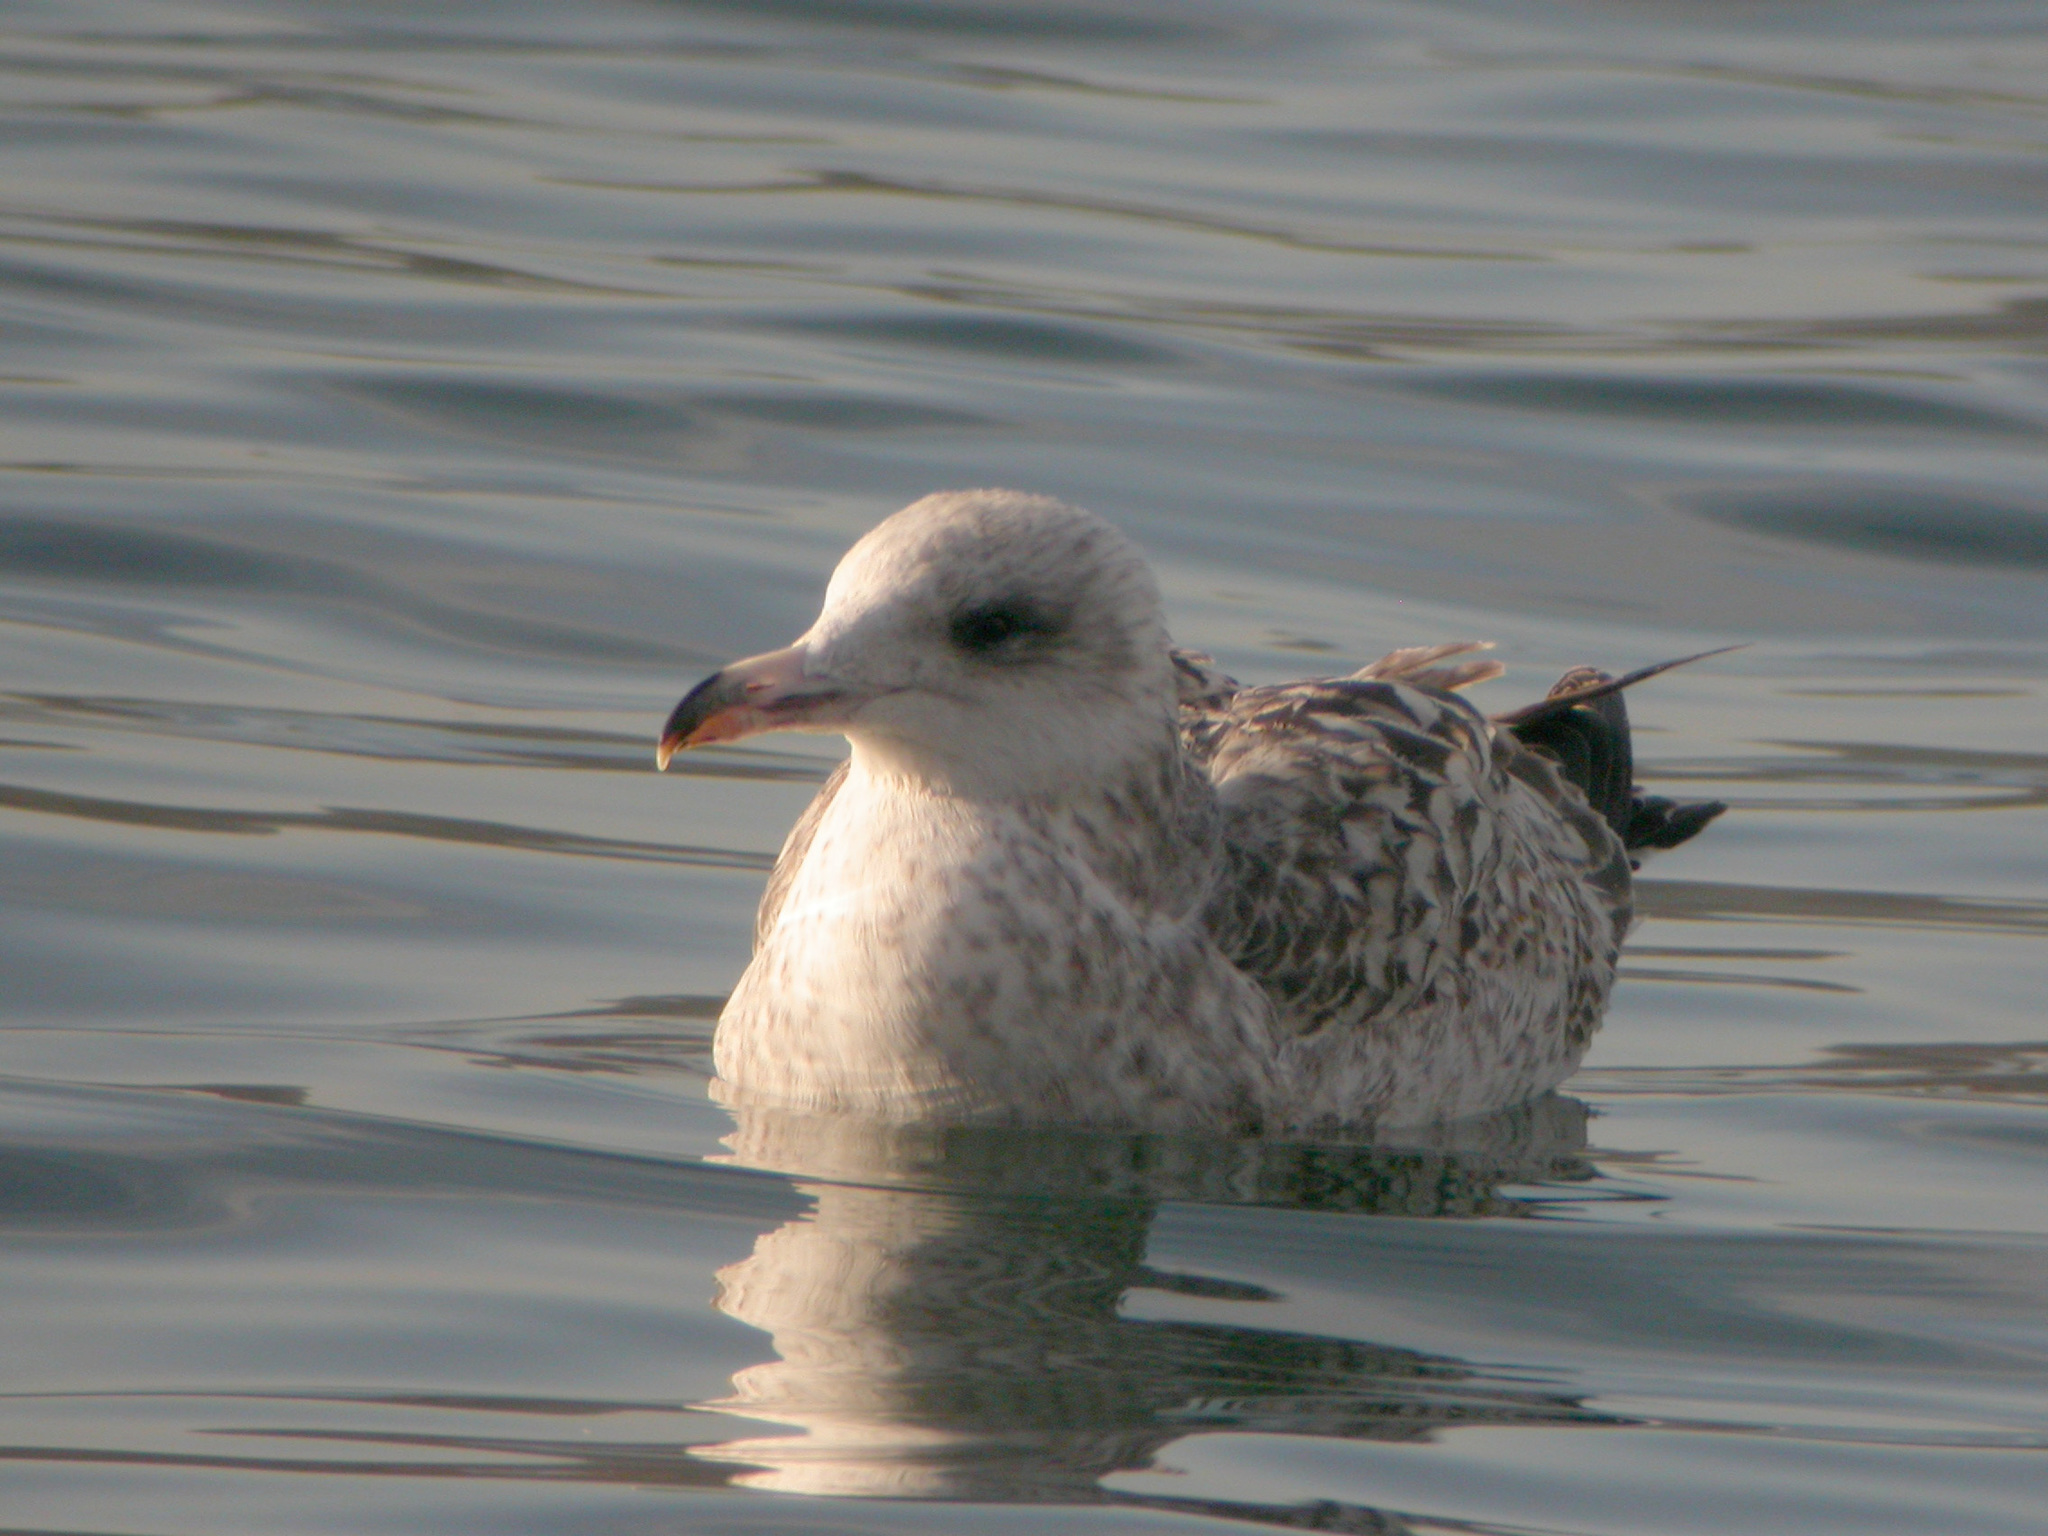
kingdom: Animalia
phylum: Chordata
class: Aves
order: Charadriiformes
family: Laridae
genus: Larus
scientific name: Larus argentatus
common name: Herring gull
